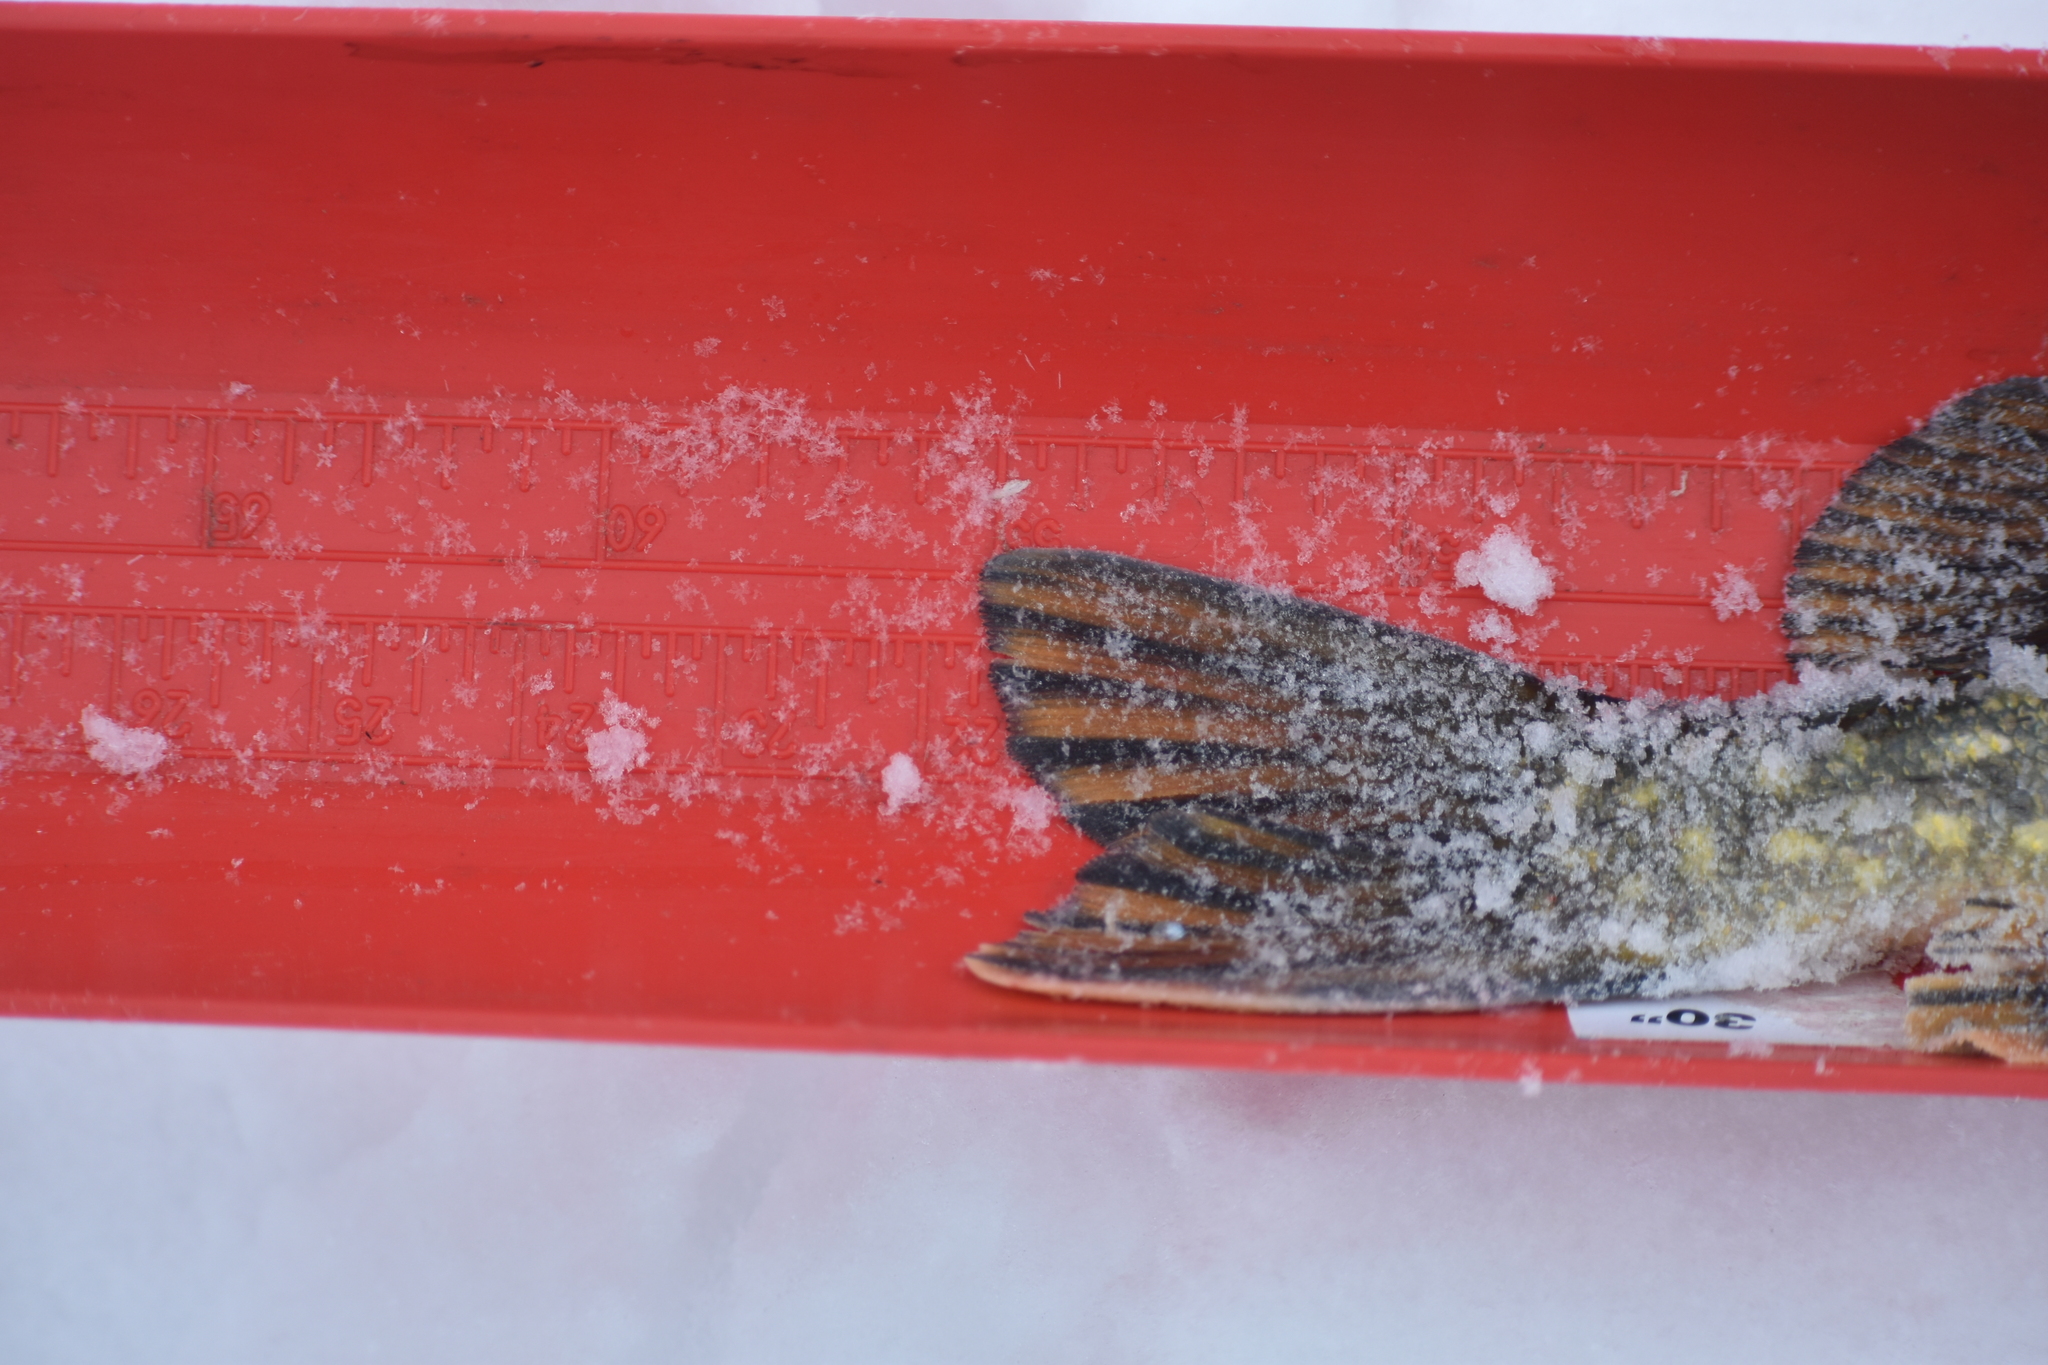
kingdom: Animalia
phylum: Chordata
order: Esociformes
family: Esocidae
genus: Esox
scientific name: Esox lucius
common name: Northern pike
